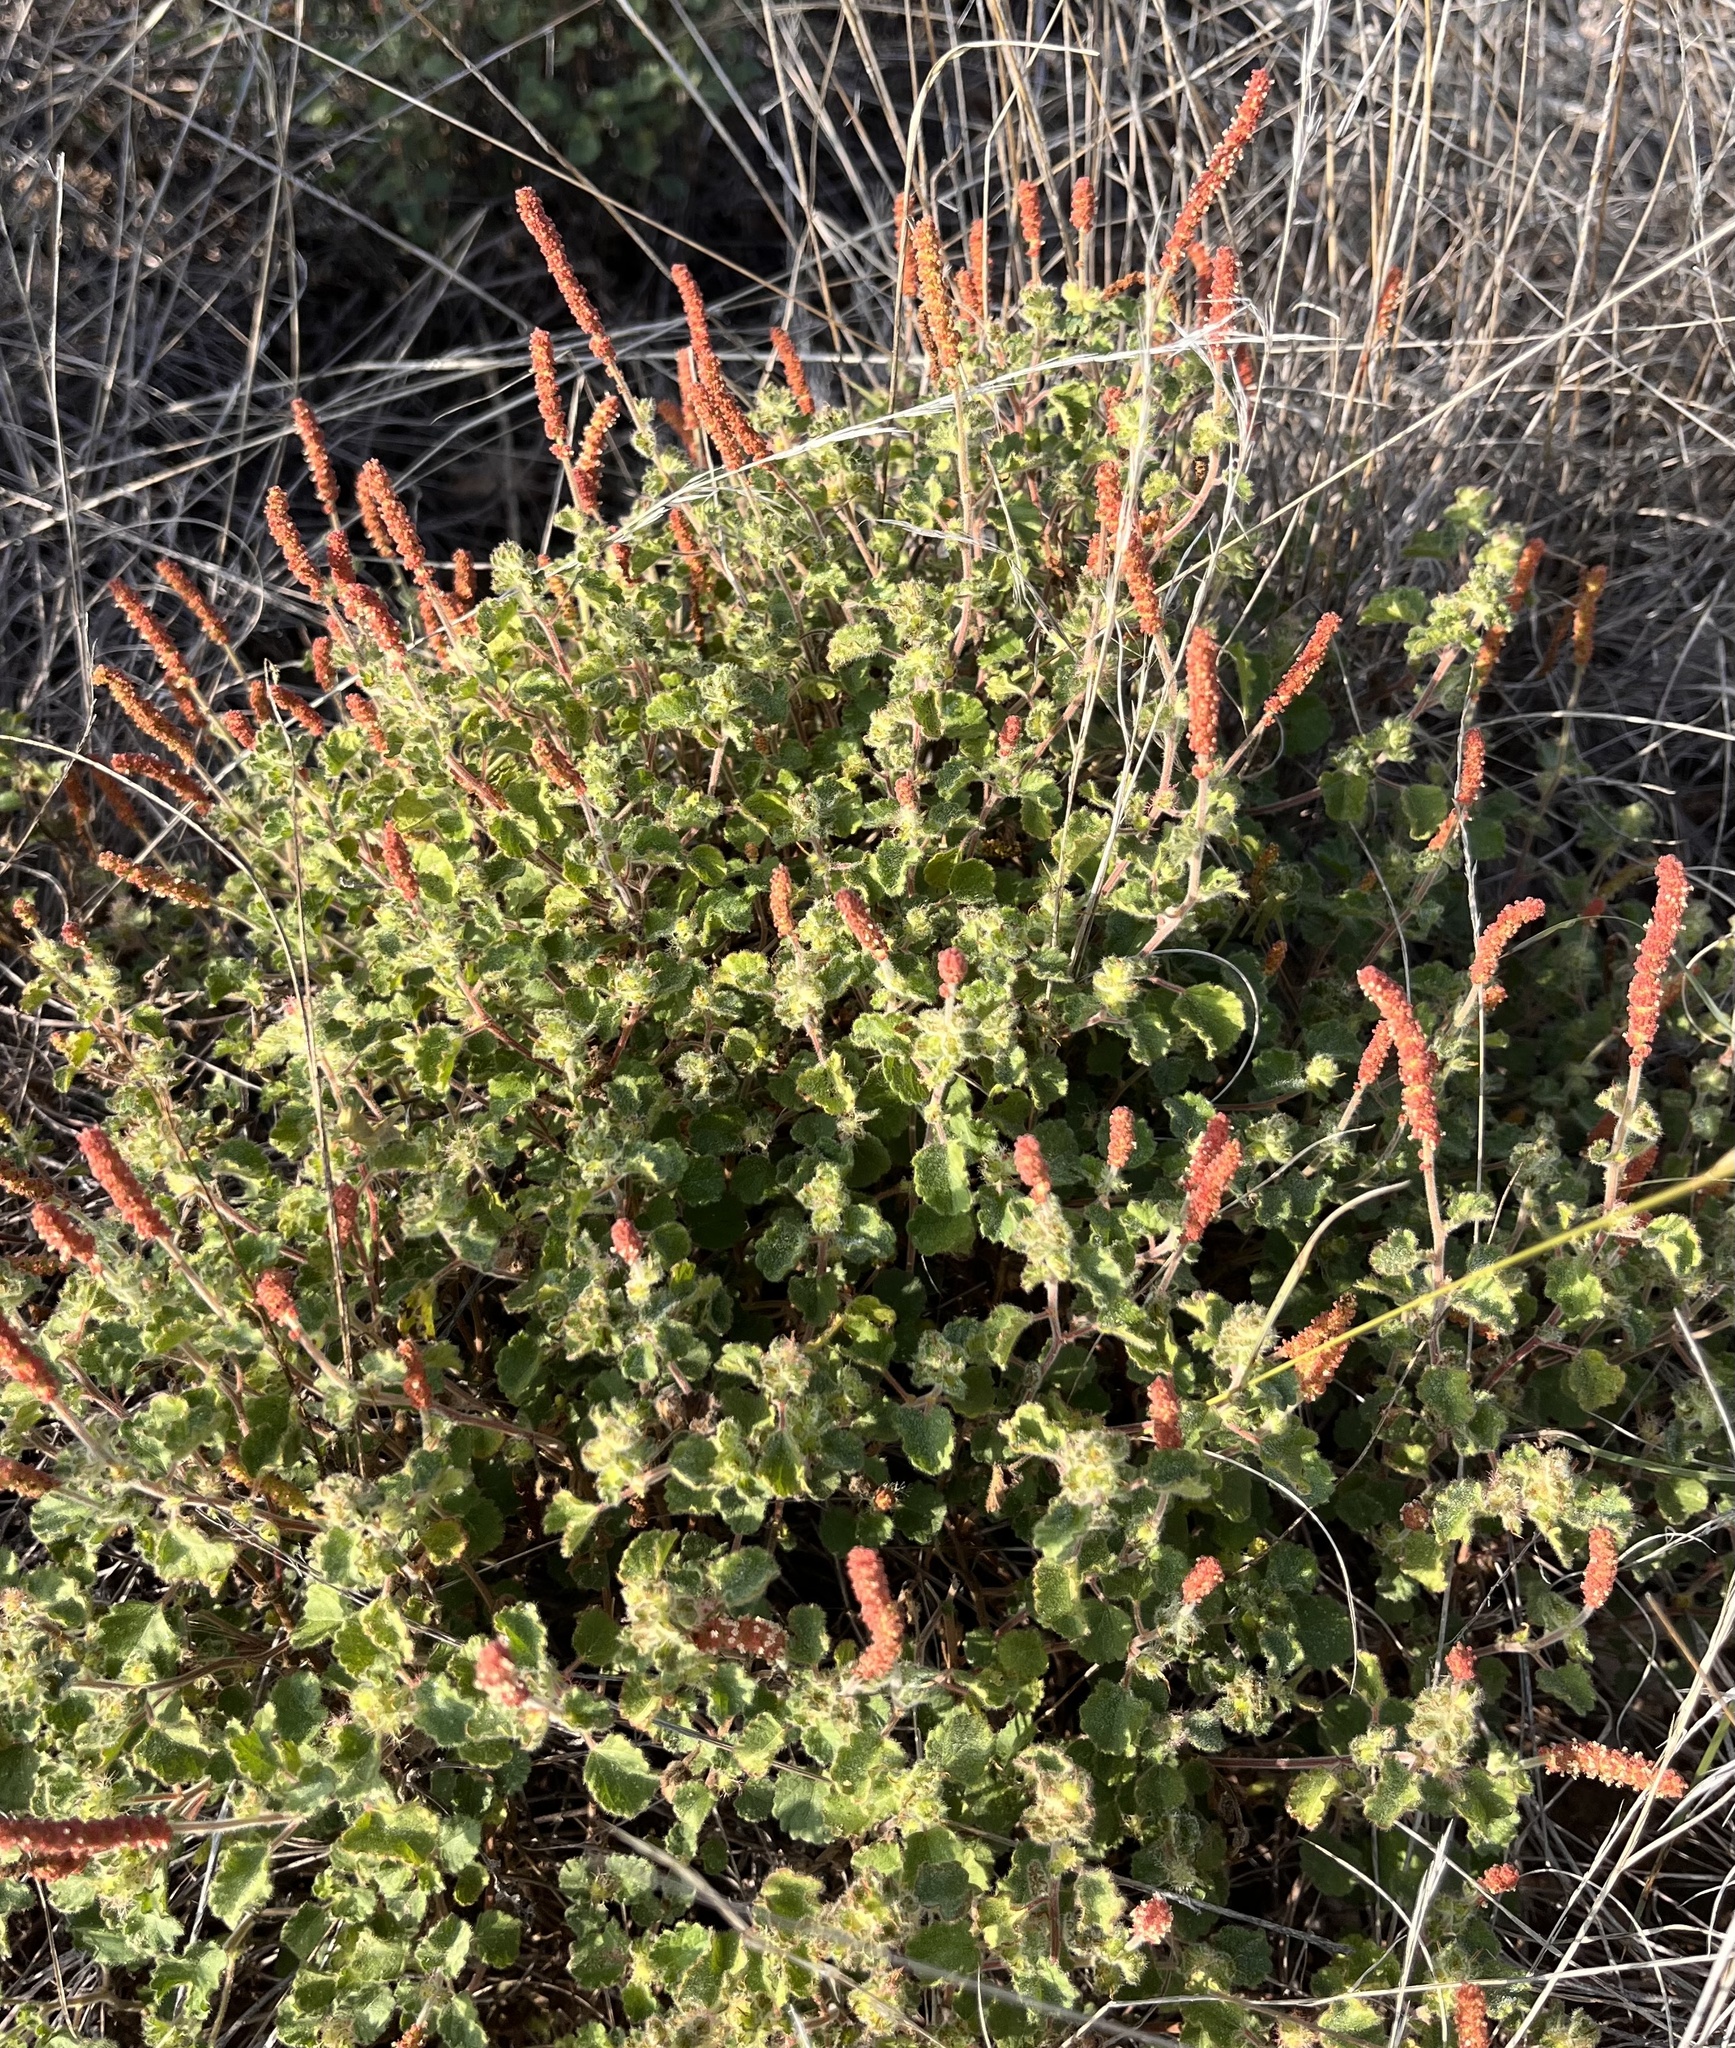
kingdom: Plantae
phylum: Tracheophyta
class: Magnoliopsida
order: Malpighiales
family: Euphorbiaceae
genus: Acalypha
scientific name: Acalypha monostachya
